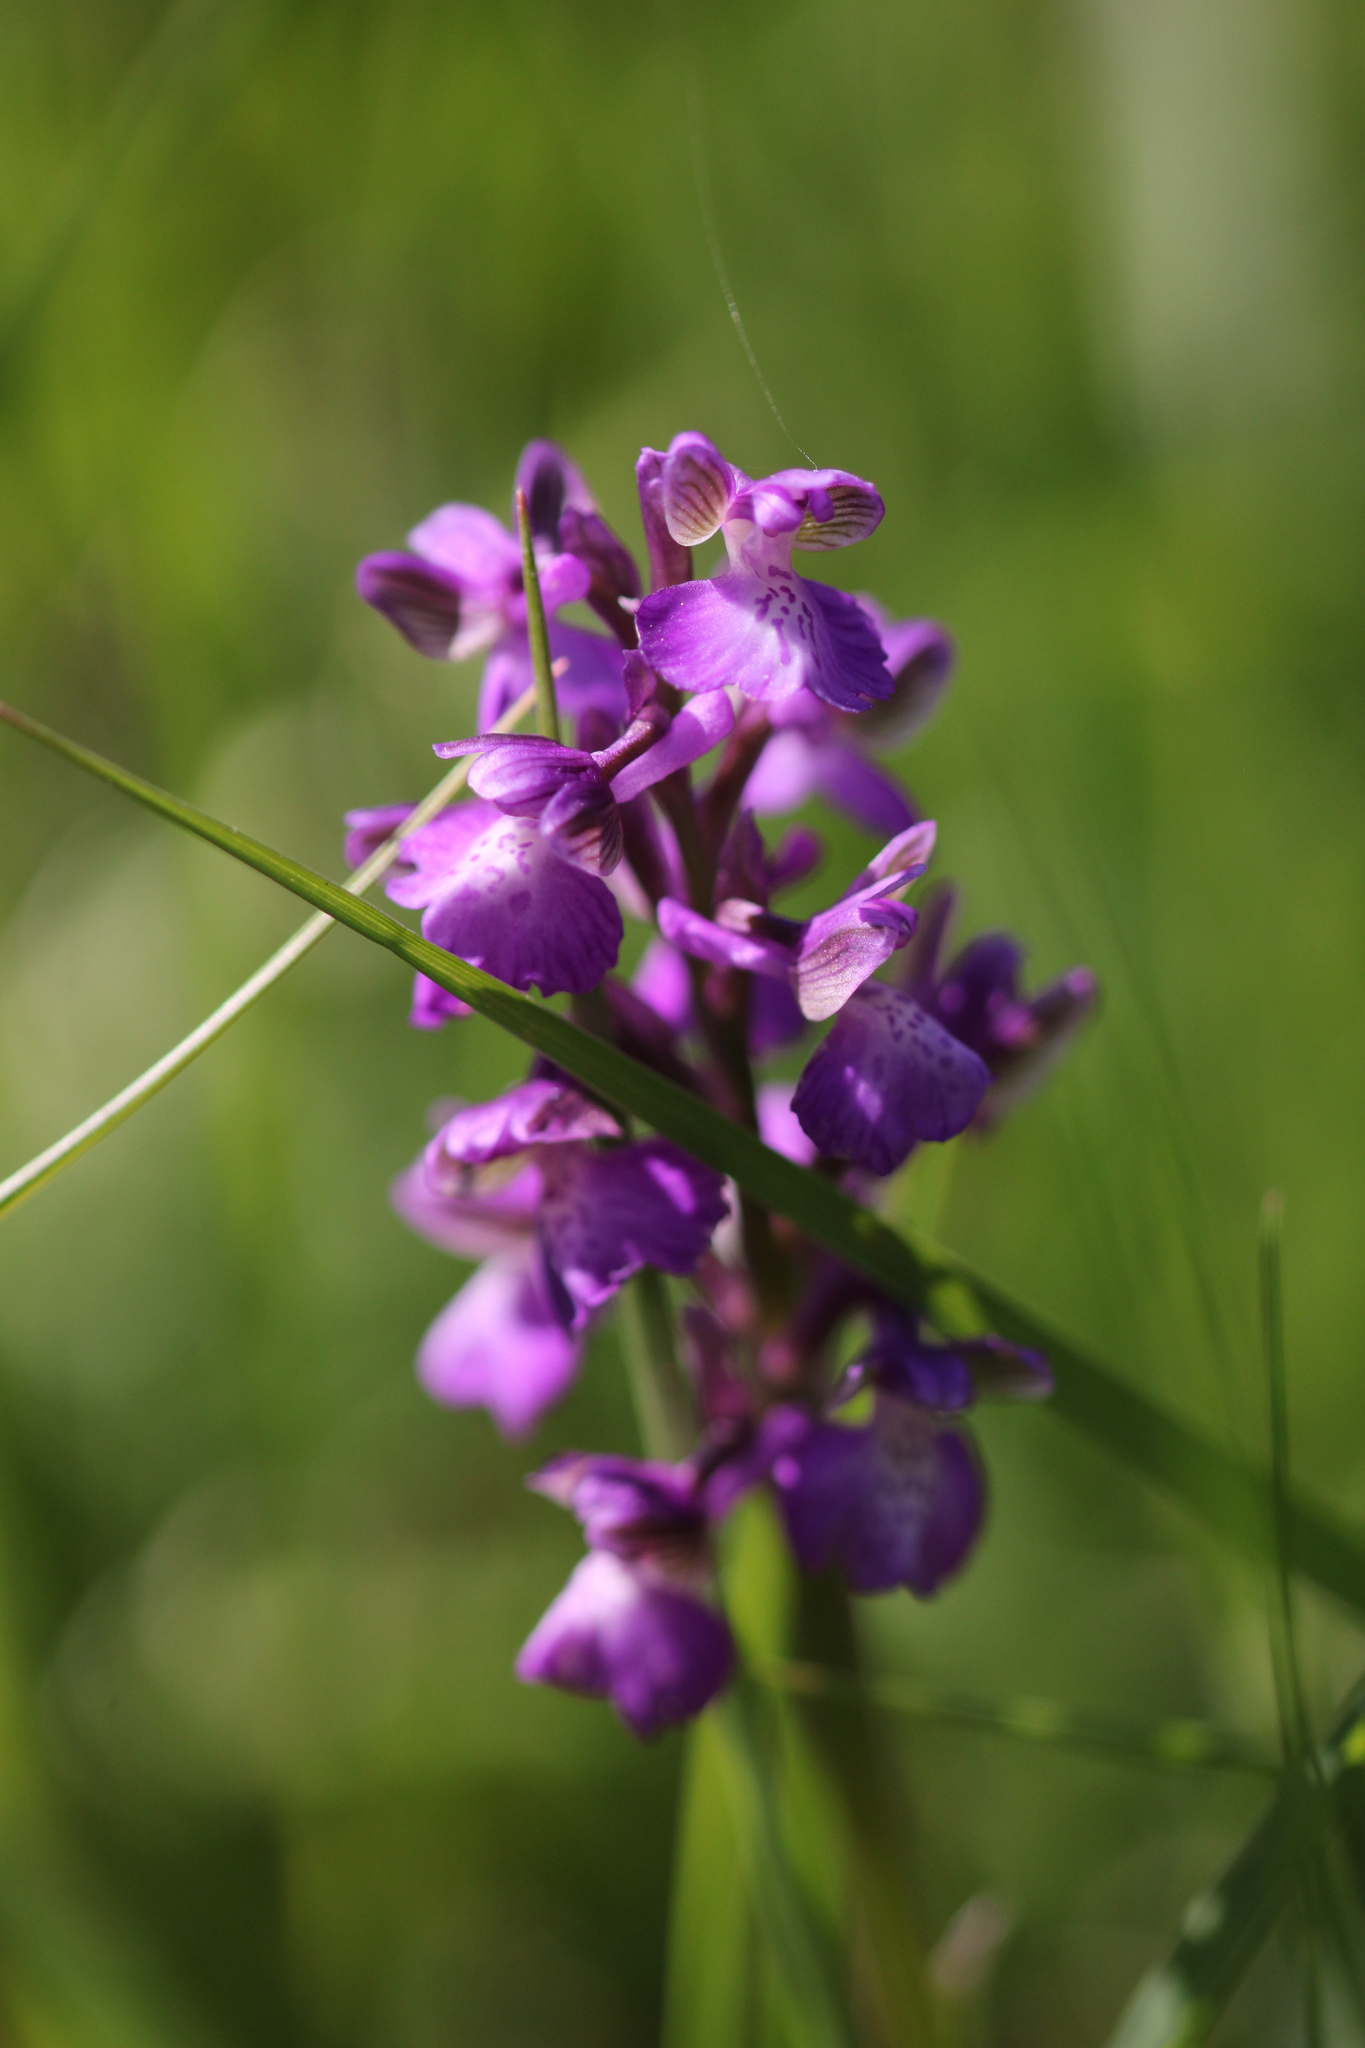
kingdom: Plantae
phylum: Tracheophyta
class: Liliopsida
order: Asparagales
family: Orchidaceae
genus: Anacamptis
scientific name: Anacamptis morio
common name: Green-winged orchid
